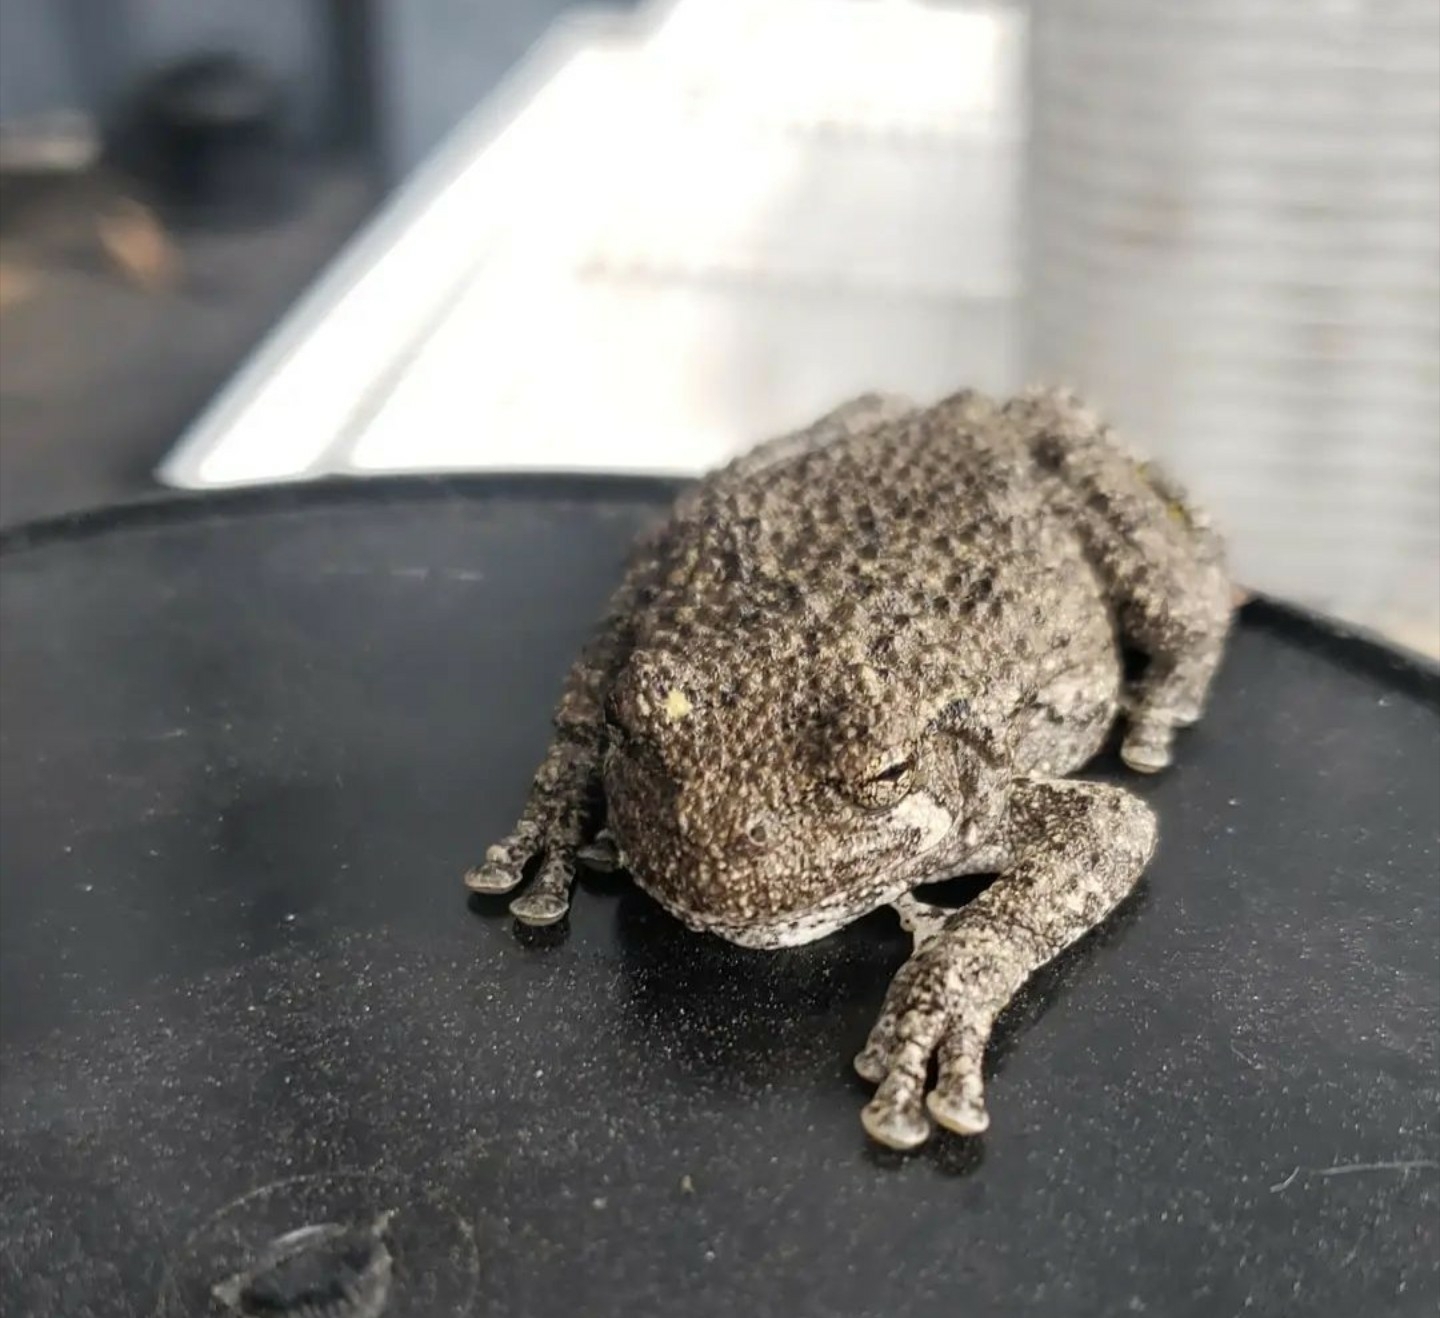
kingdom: Animalia
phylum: Chordata
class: Amphibia
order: Anura
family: Hylidae
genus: Dryophytes
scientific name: Dryophytes versicolor
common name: Gray treefrog
